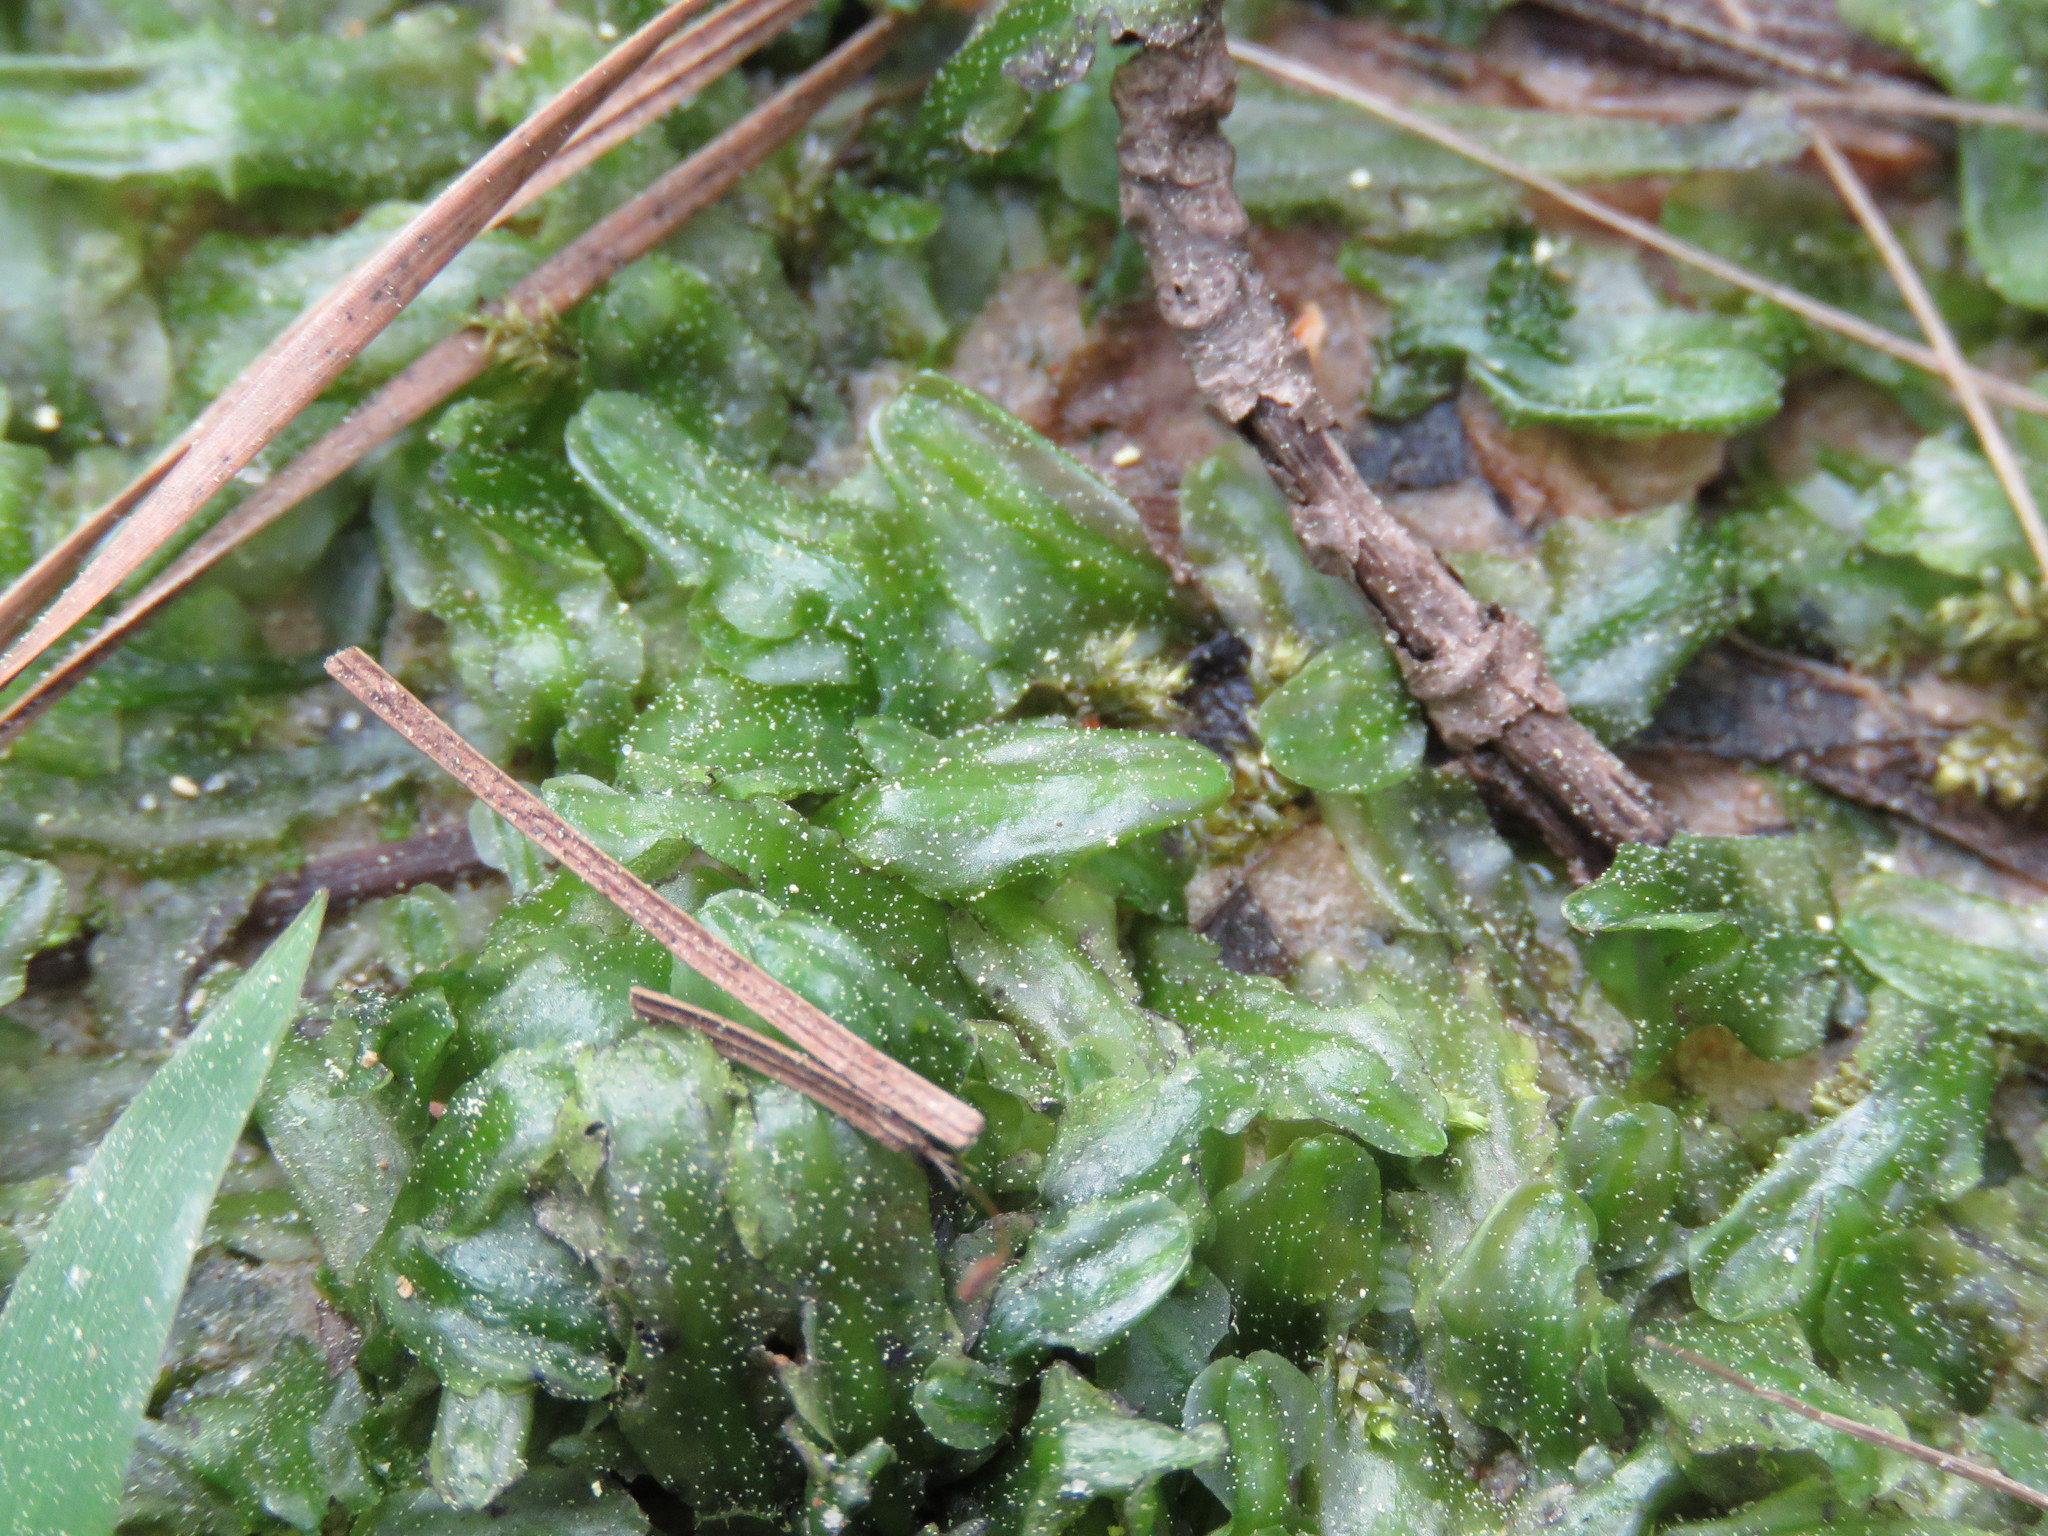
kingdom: Plantae
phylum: Marchantiophyta
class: Jungermanniopsida
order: Pallaviciniales
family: Pallaviciniaceae
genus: Pallavicinia
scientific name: Pallavicinia lyellii
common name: Veilwort
